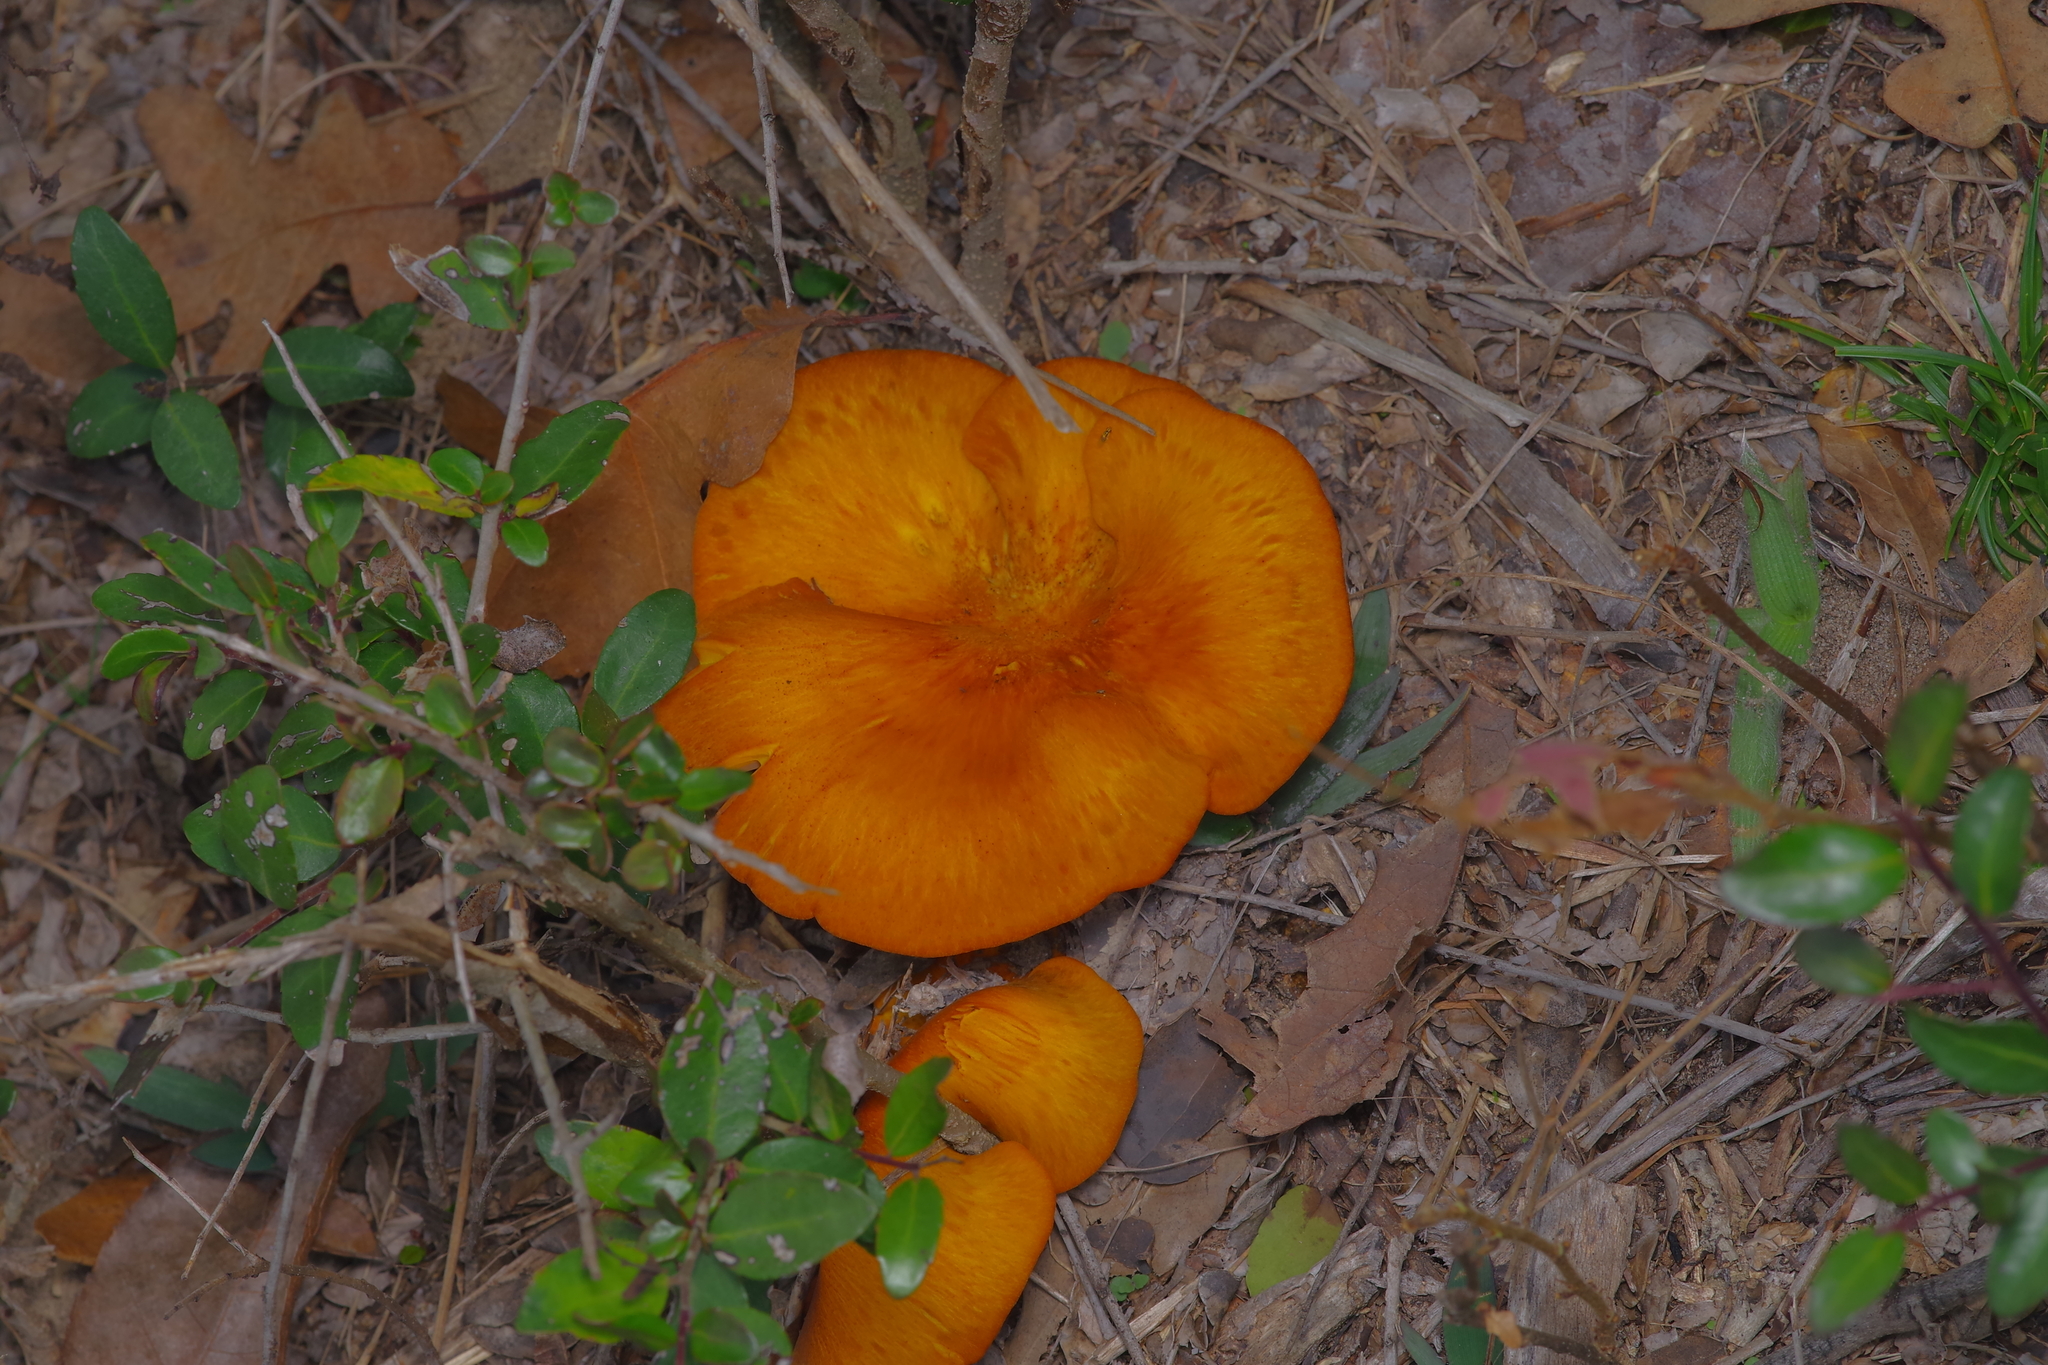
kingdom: Fungi
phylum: Basidiomycota
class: Agaricomycetes
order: Agaricales
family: Omphalotaceae
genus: Omphalotus
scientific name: Omphalotus subilludens
